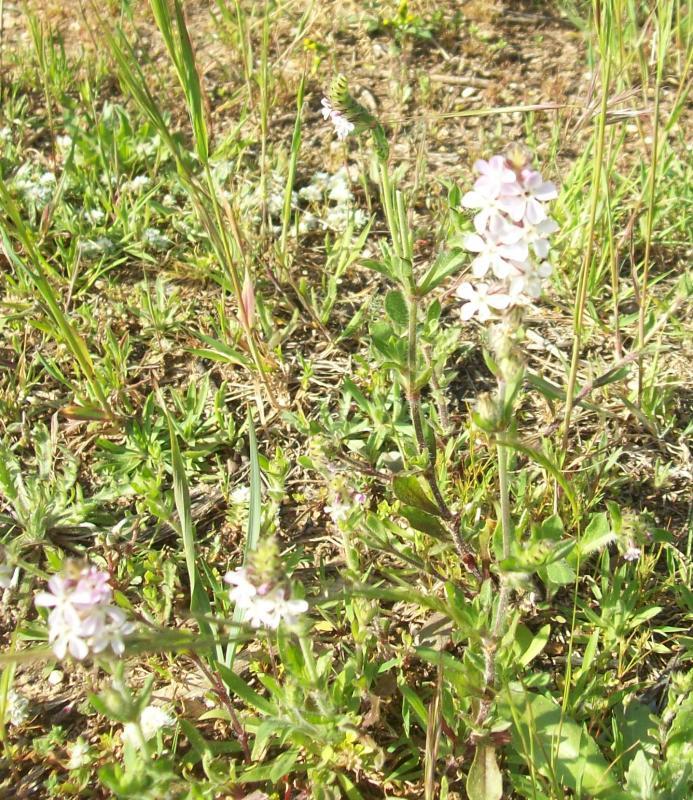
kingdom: Plantae
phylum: Tracheophyta
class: Magnoliopsida
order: Caryophyllales
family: Caryophyllaceae
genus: Silene
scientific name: Silene gallica
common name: Small-flowered catchfly
